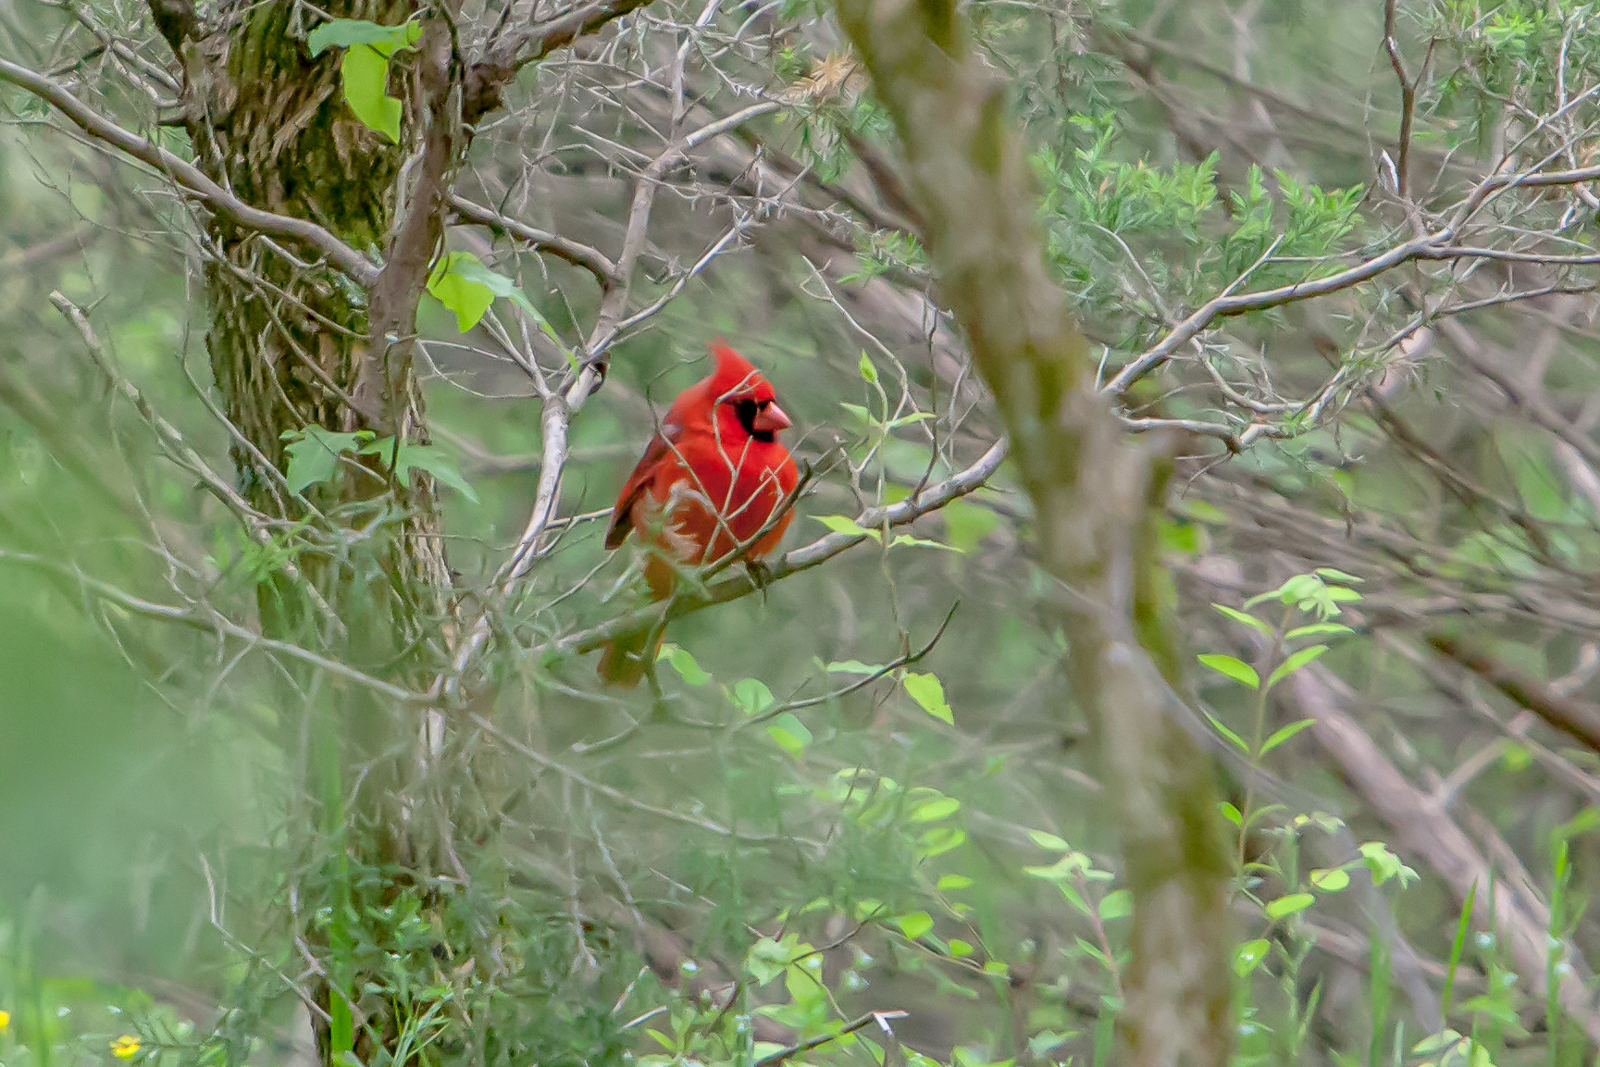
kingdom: Animalia
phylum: Chordata
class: Aves
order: Passeriformes
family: Cardinalidae
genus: Cardinalis
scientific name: Cardinalis cardinalis
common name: Northern cardinal
